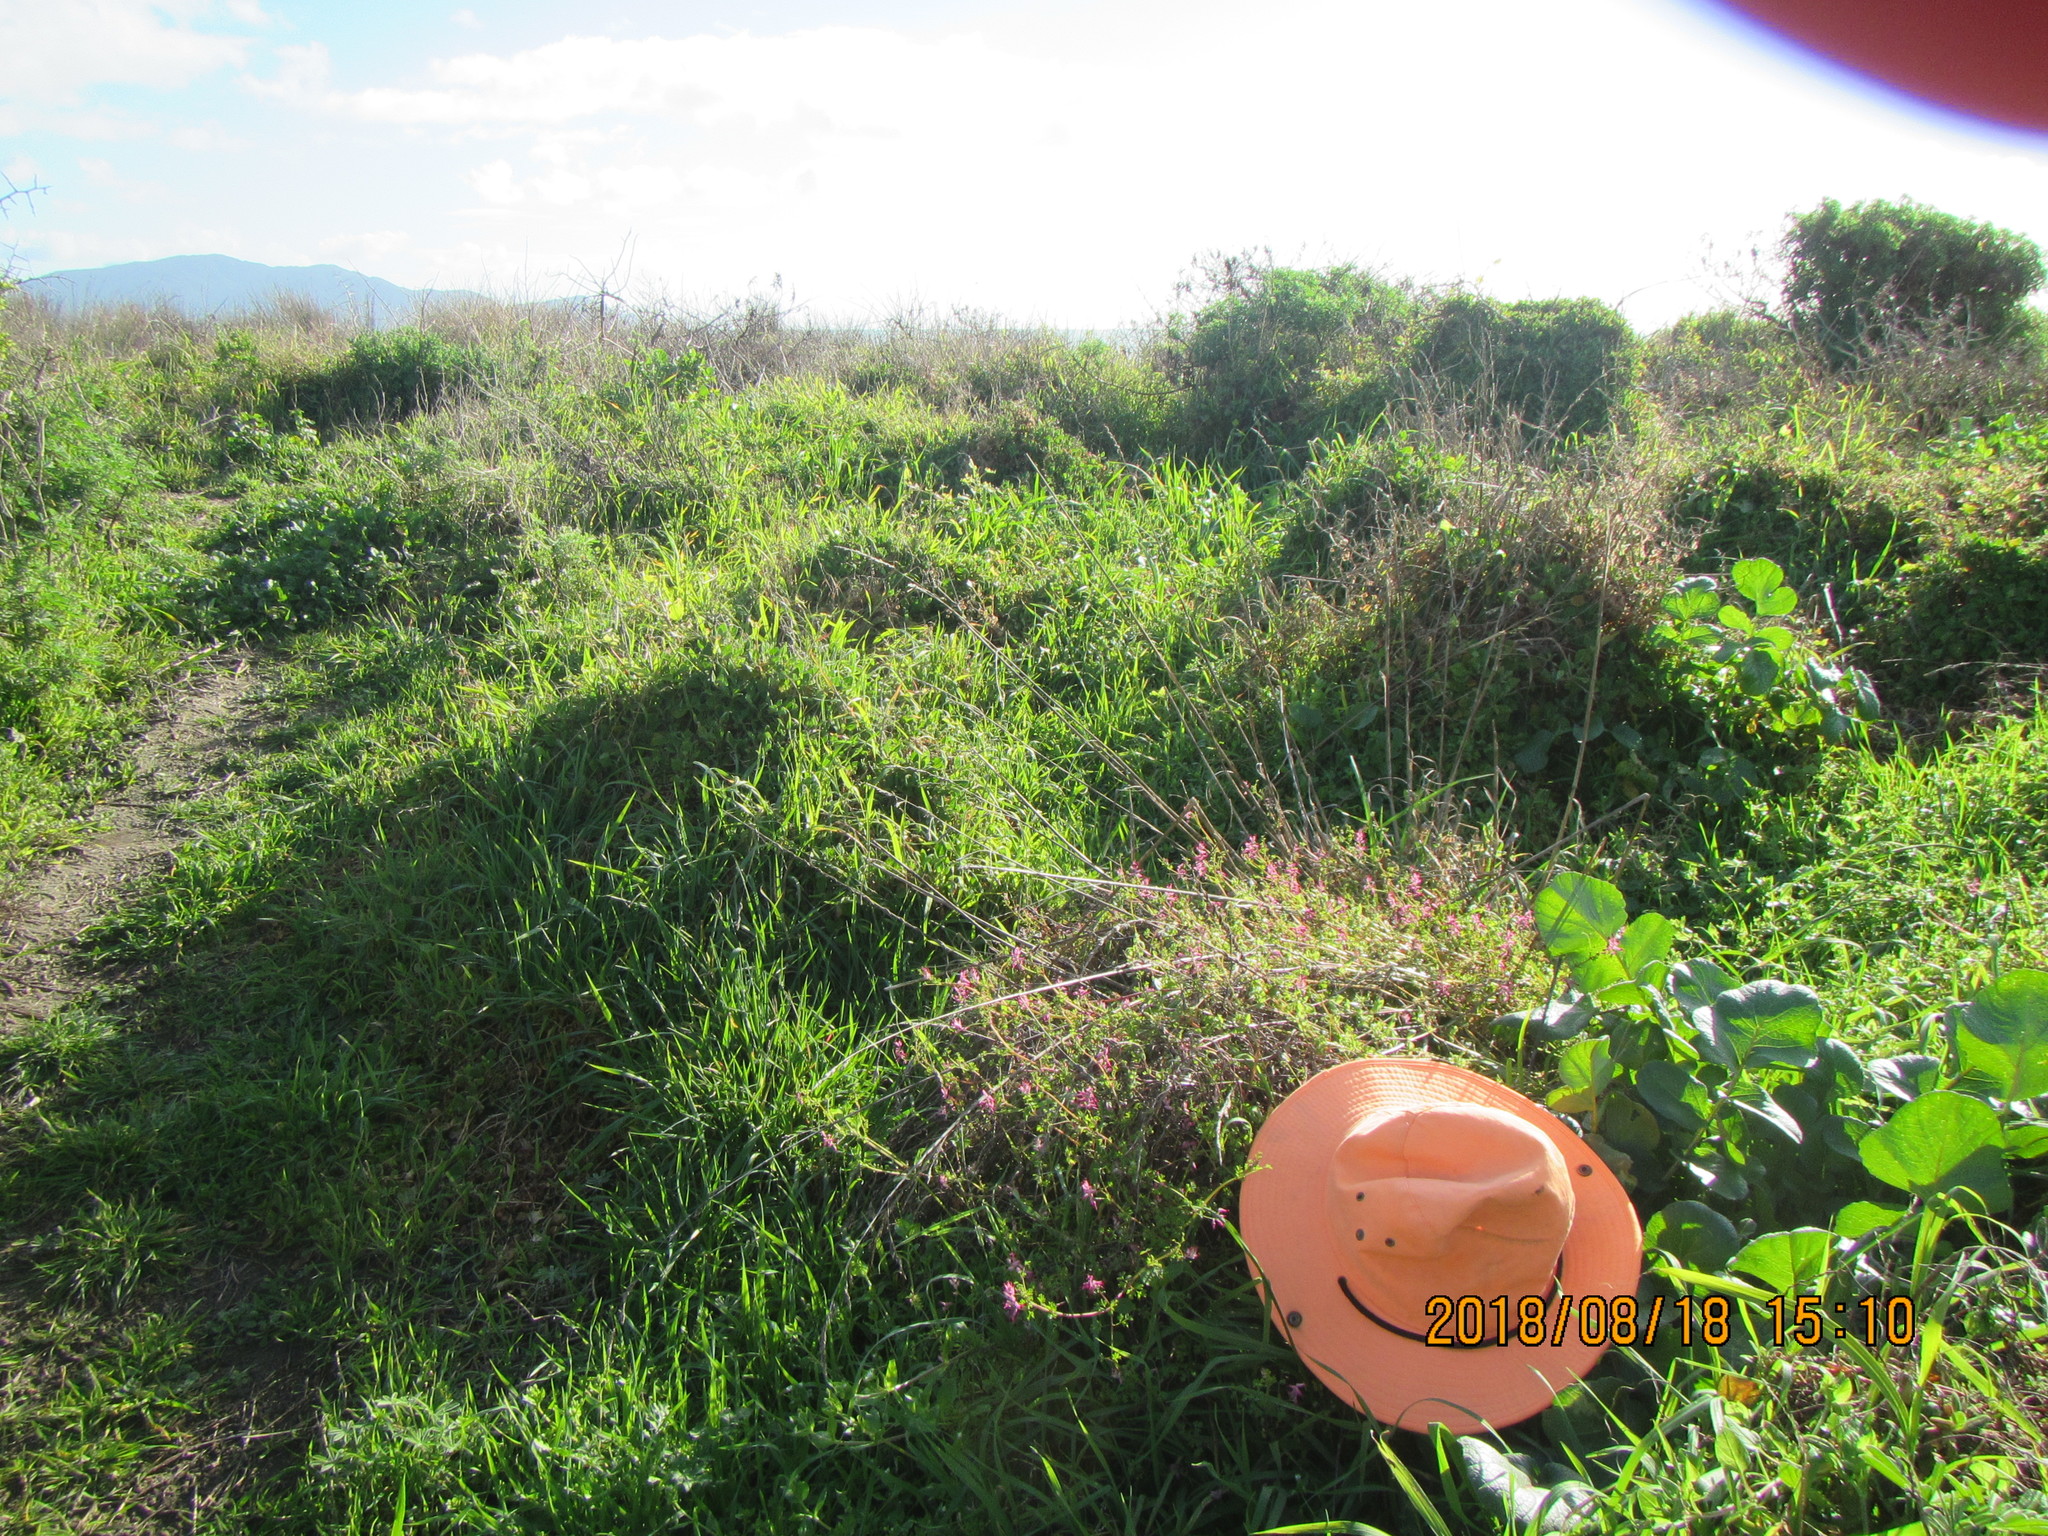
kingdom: Plantae
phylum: Tracheophyta
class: Magnoliopsida
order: Ranunculales
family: Papaveraceae
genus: Fumaria
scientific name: Fumaria muralis
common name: Common ramping-fumitory
